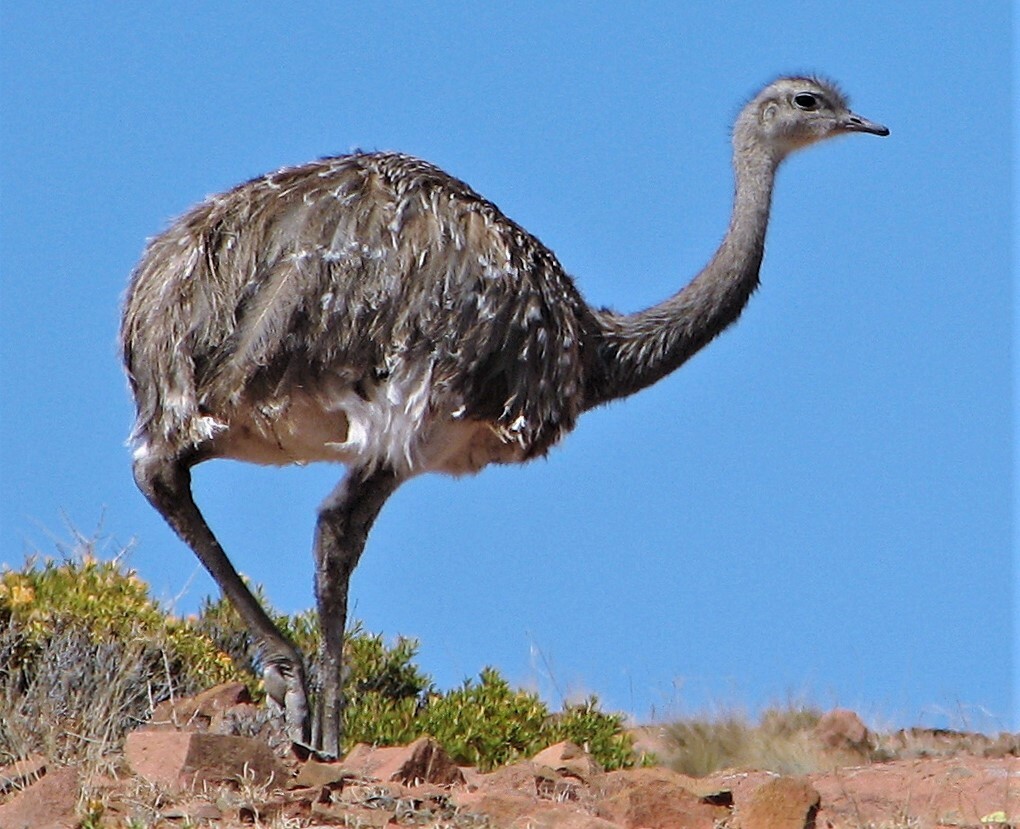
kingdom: Animalia
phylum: Chordata
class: Aves
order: Rheiformes
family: Rheidae
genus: Rhea
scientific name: Rhea pennata
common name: Lesser rhea
